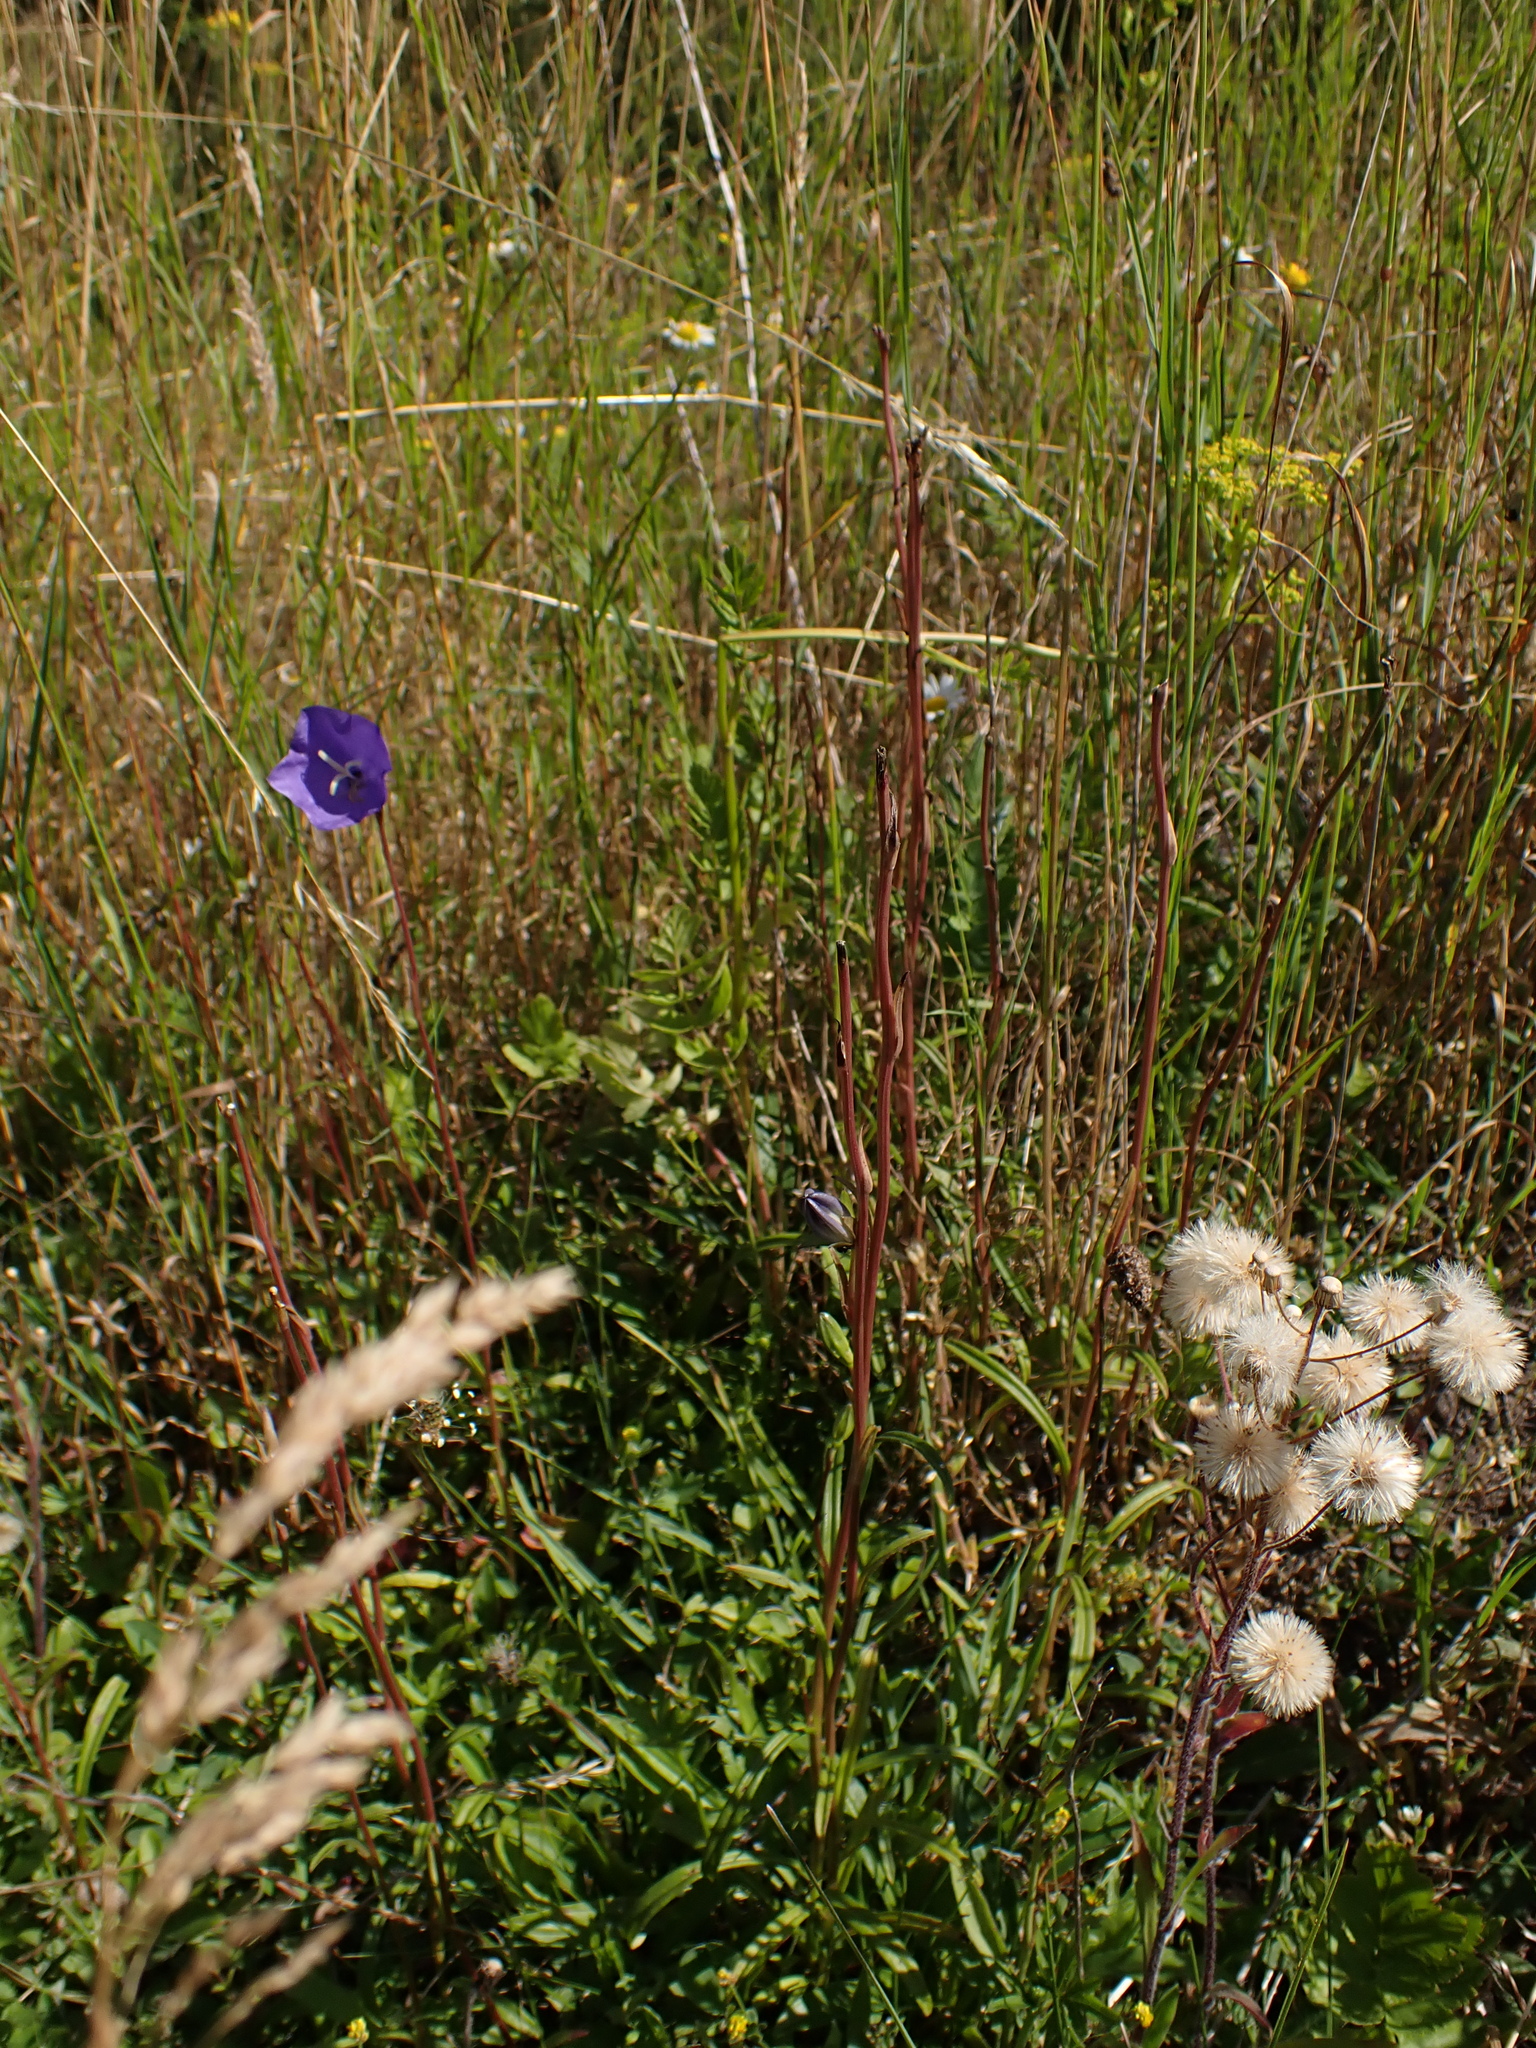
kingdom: Plantae
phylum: Tracheophyta
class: Magnoliopsida
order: Asterales
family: Campanulaceae
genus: Campanula
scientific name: Campanula persicifolia
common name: Peach-leaved bellflower
